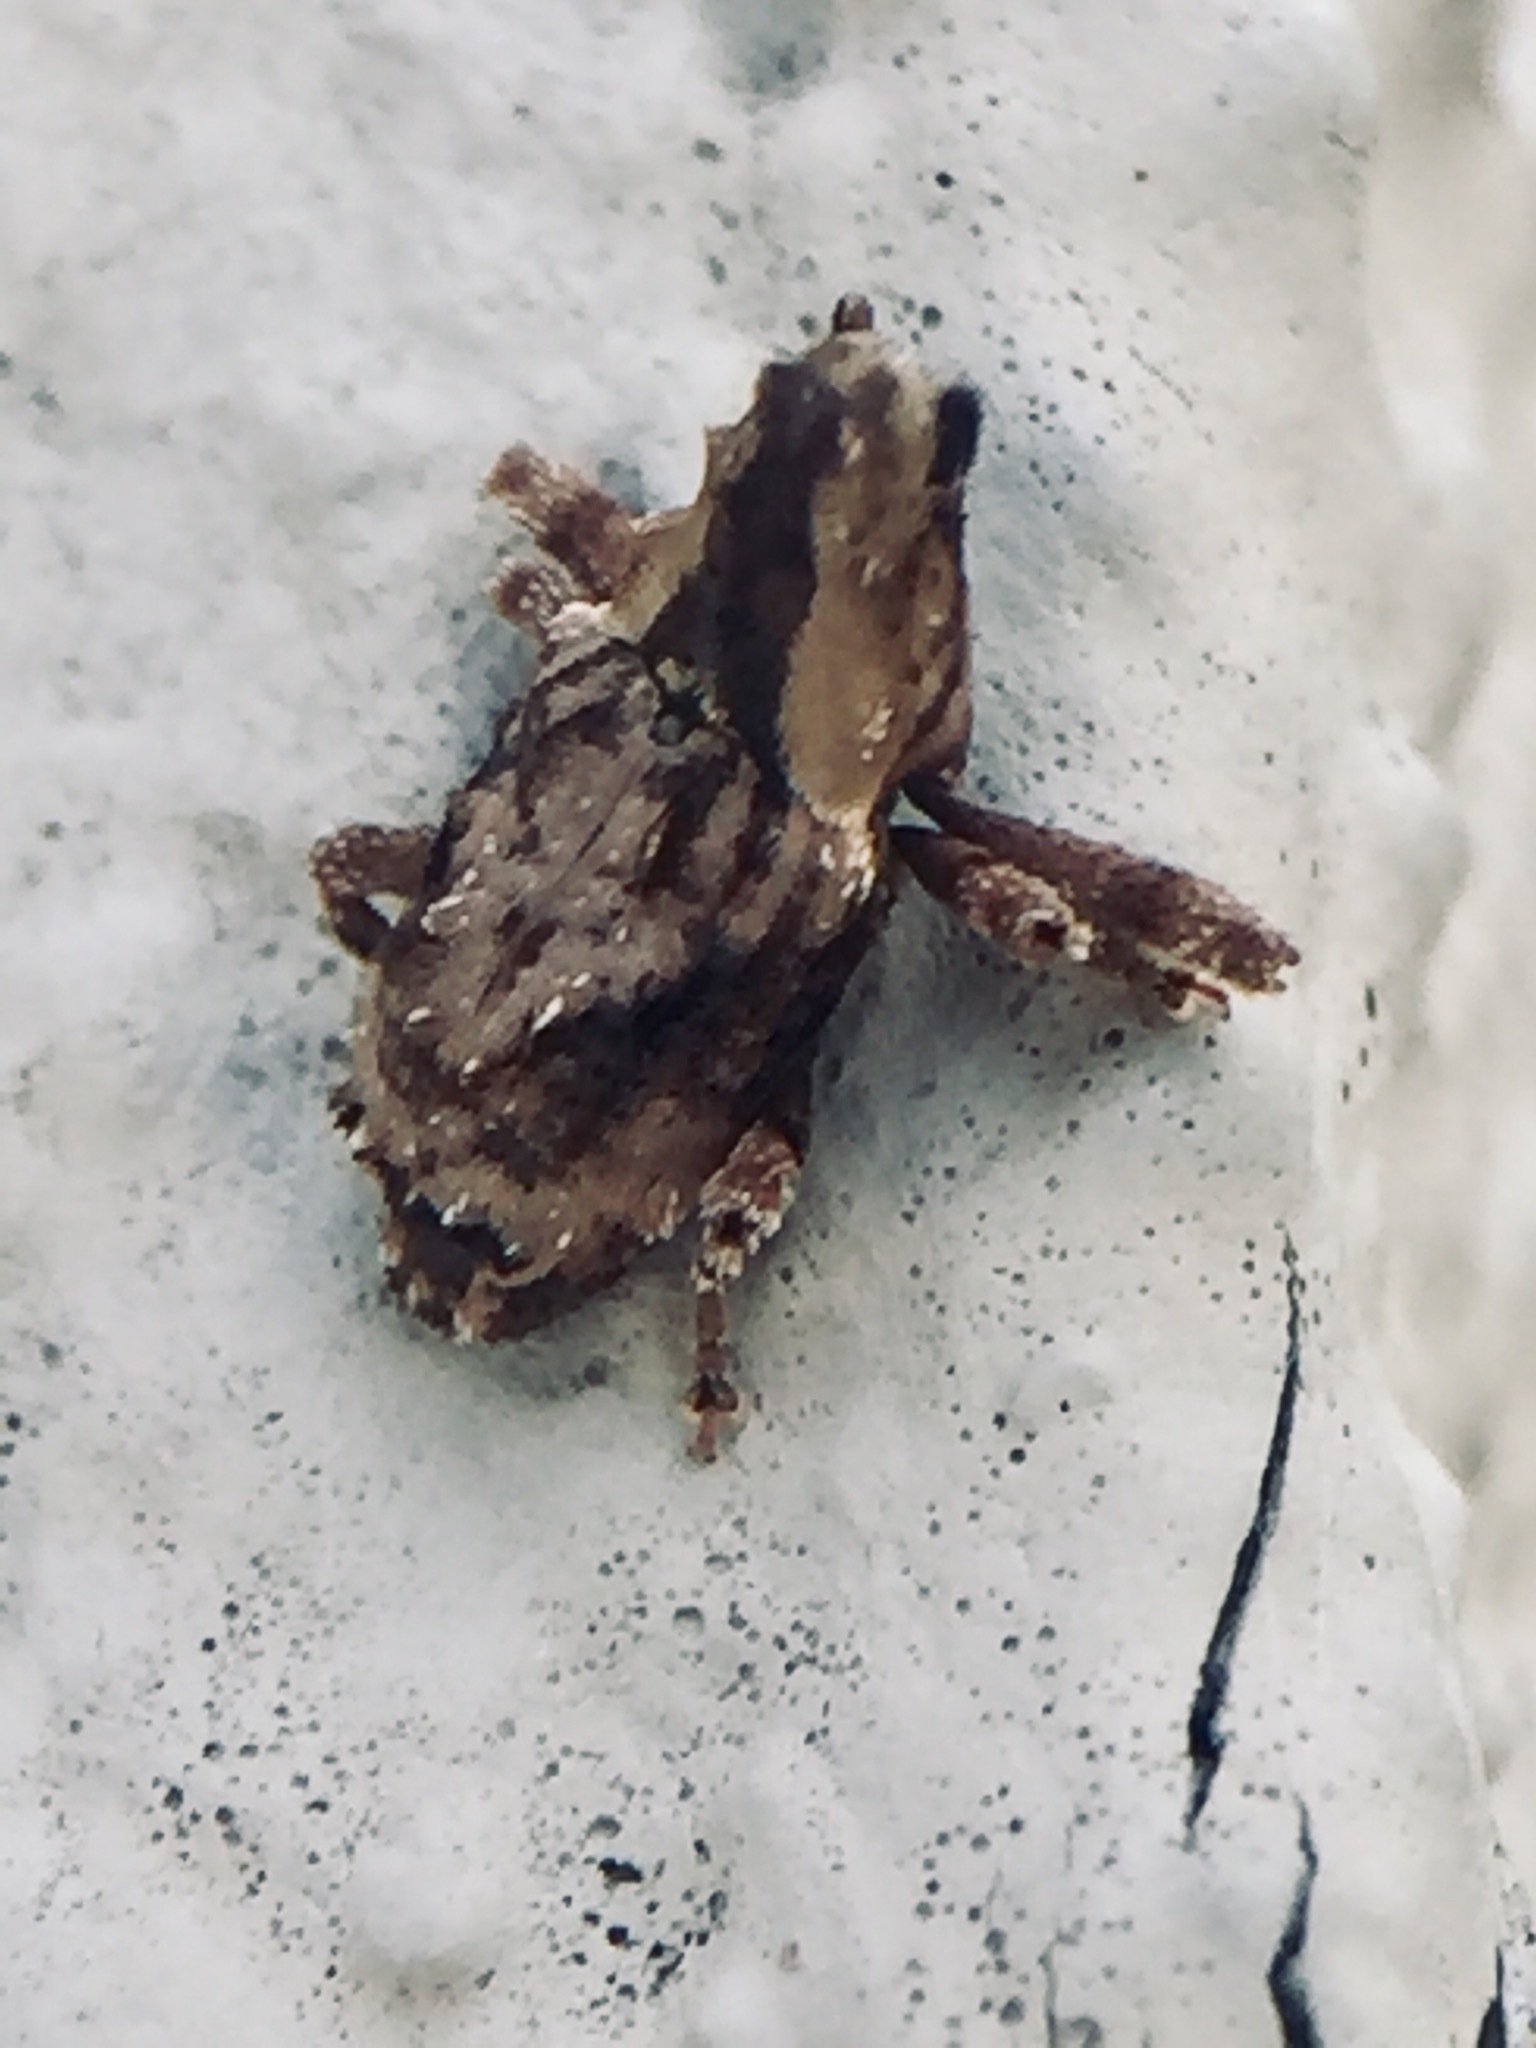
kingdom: Animalia
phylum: Arthropoda
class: Insecta
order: Coleoptera
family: Curculionidae
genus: Mecistostylus
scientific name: Mecistostylus douei
